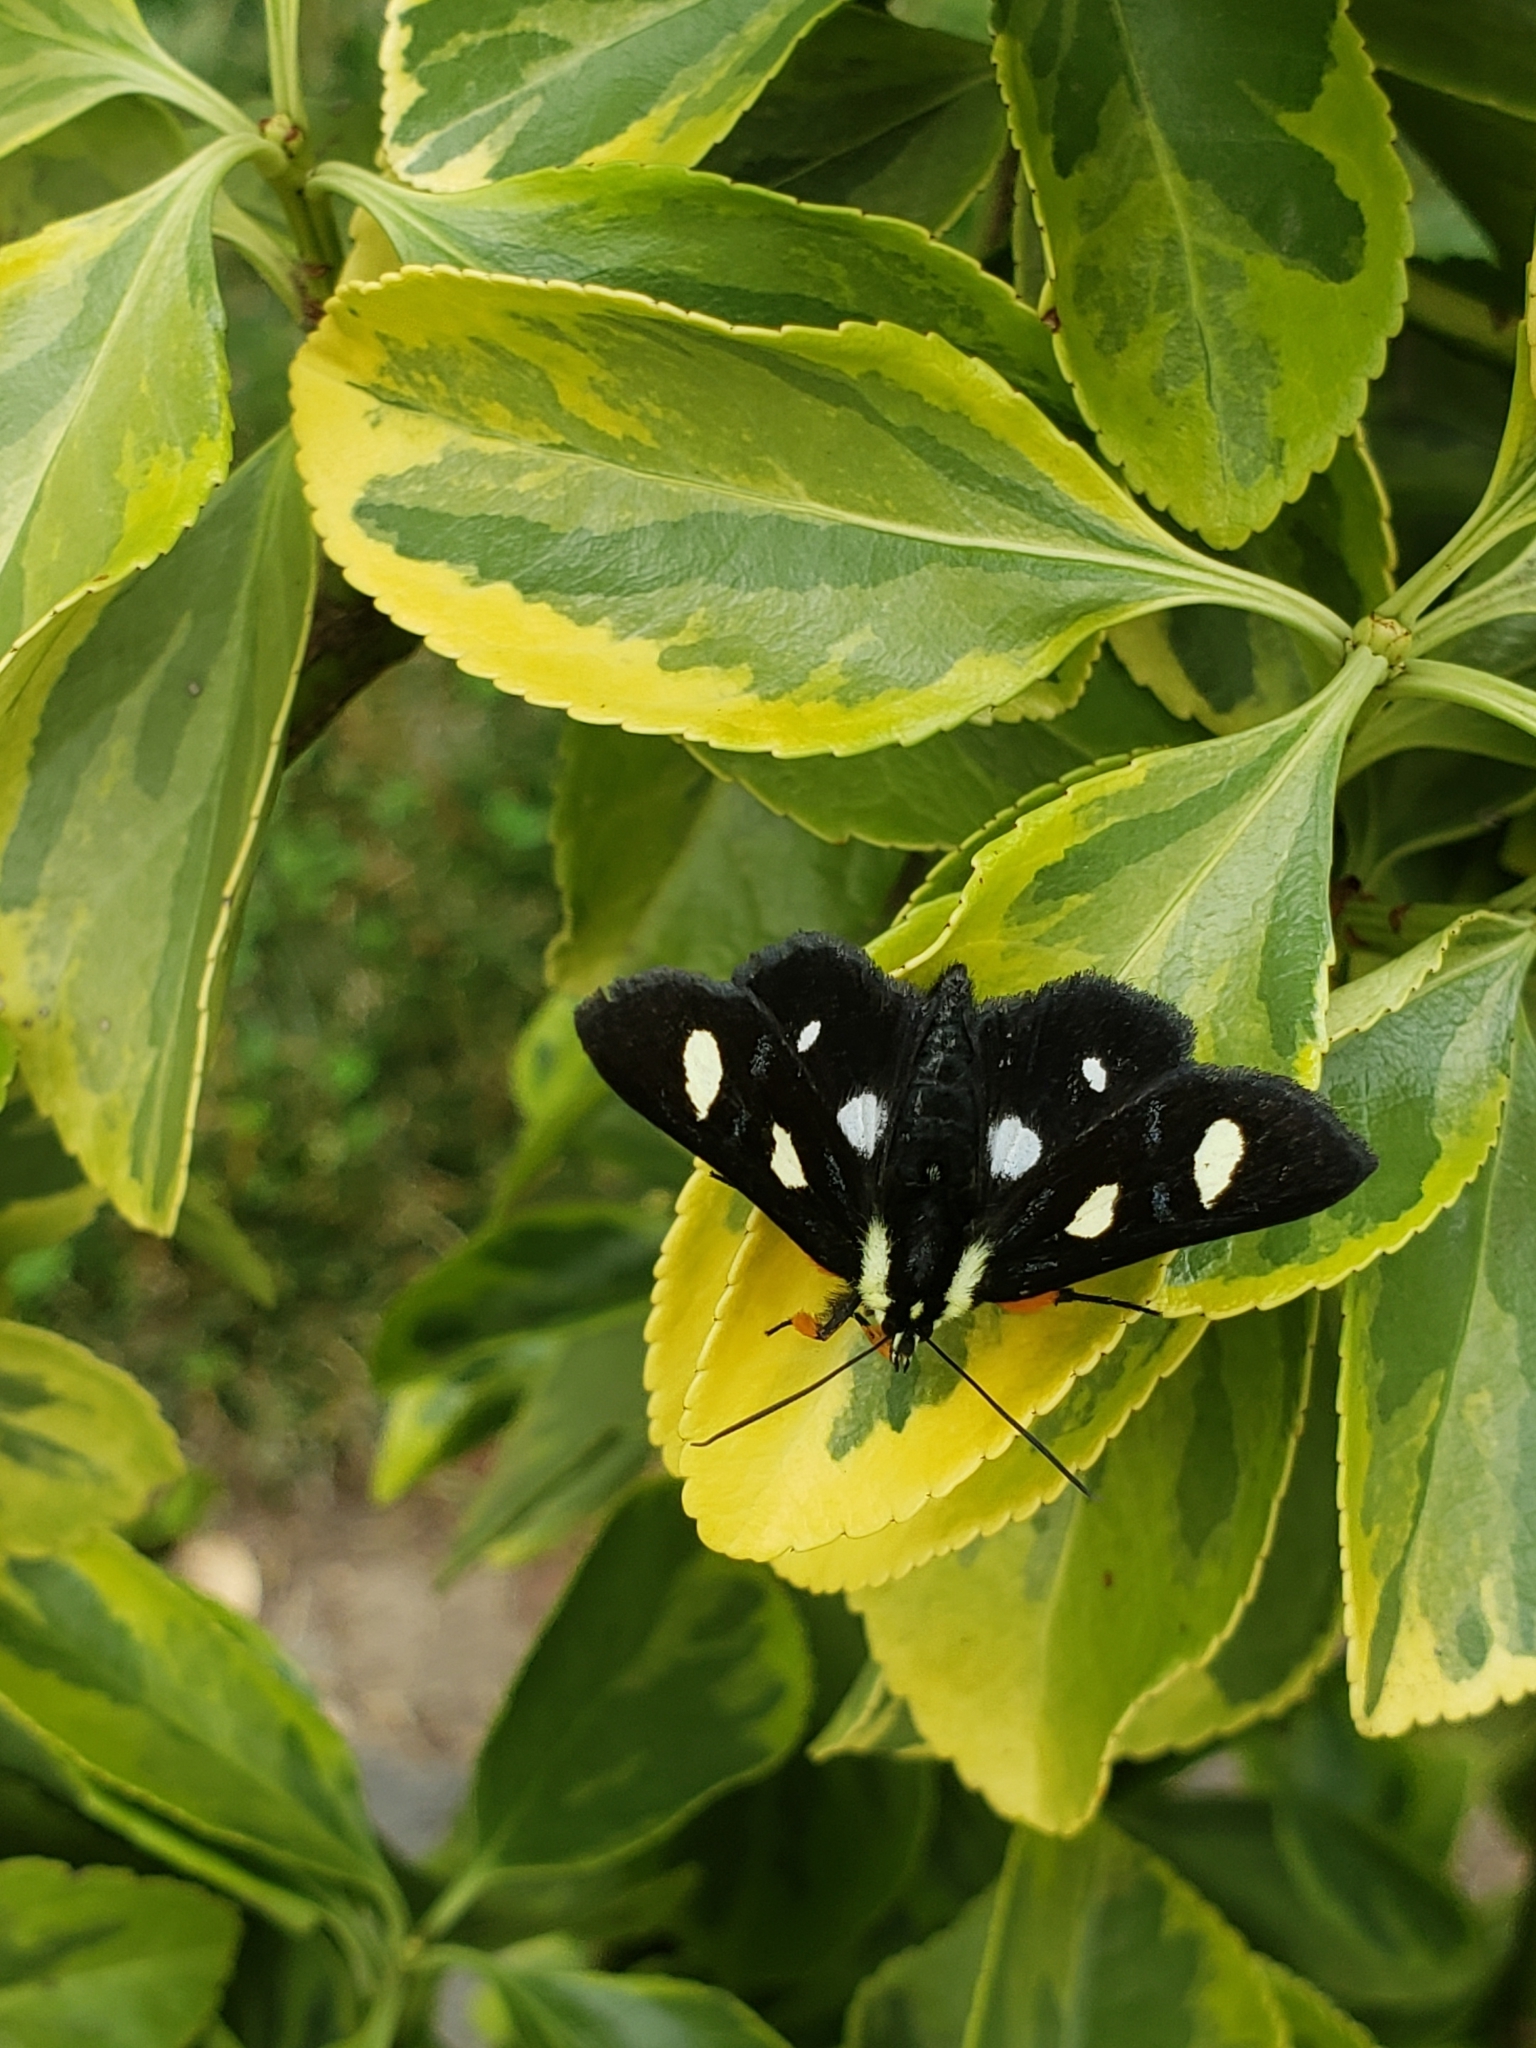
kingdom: Animalia
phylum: Arthropoda
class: Insecta
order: Lepidoptera
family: Noctuidae
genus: Alypia
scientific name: Alypia octomaculata
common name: Eight-spotted forester
